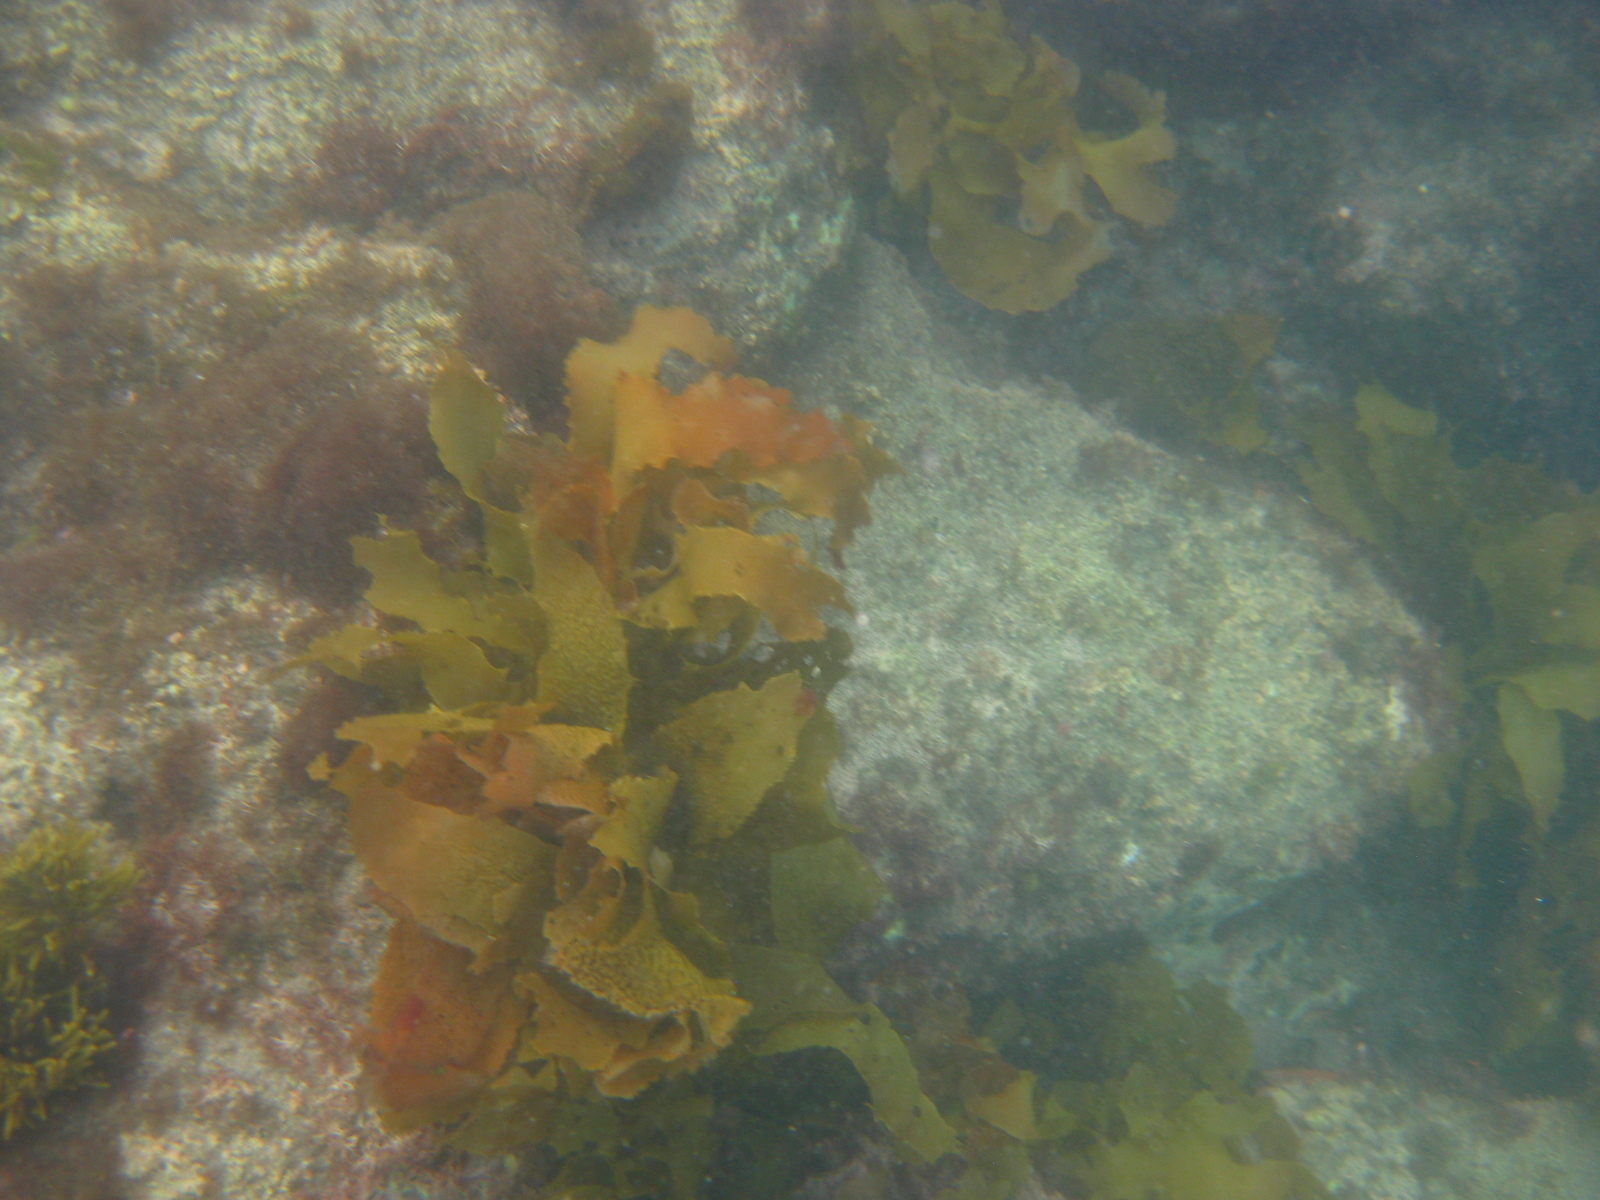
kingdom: Chromista
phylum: Ochrophyta
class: Phaeophyceae
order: Laminariales
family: Lessoniaceae
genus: Ecklonia
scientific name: Ecklonia radiata
